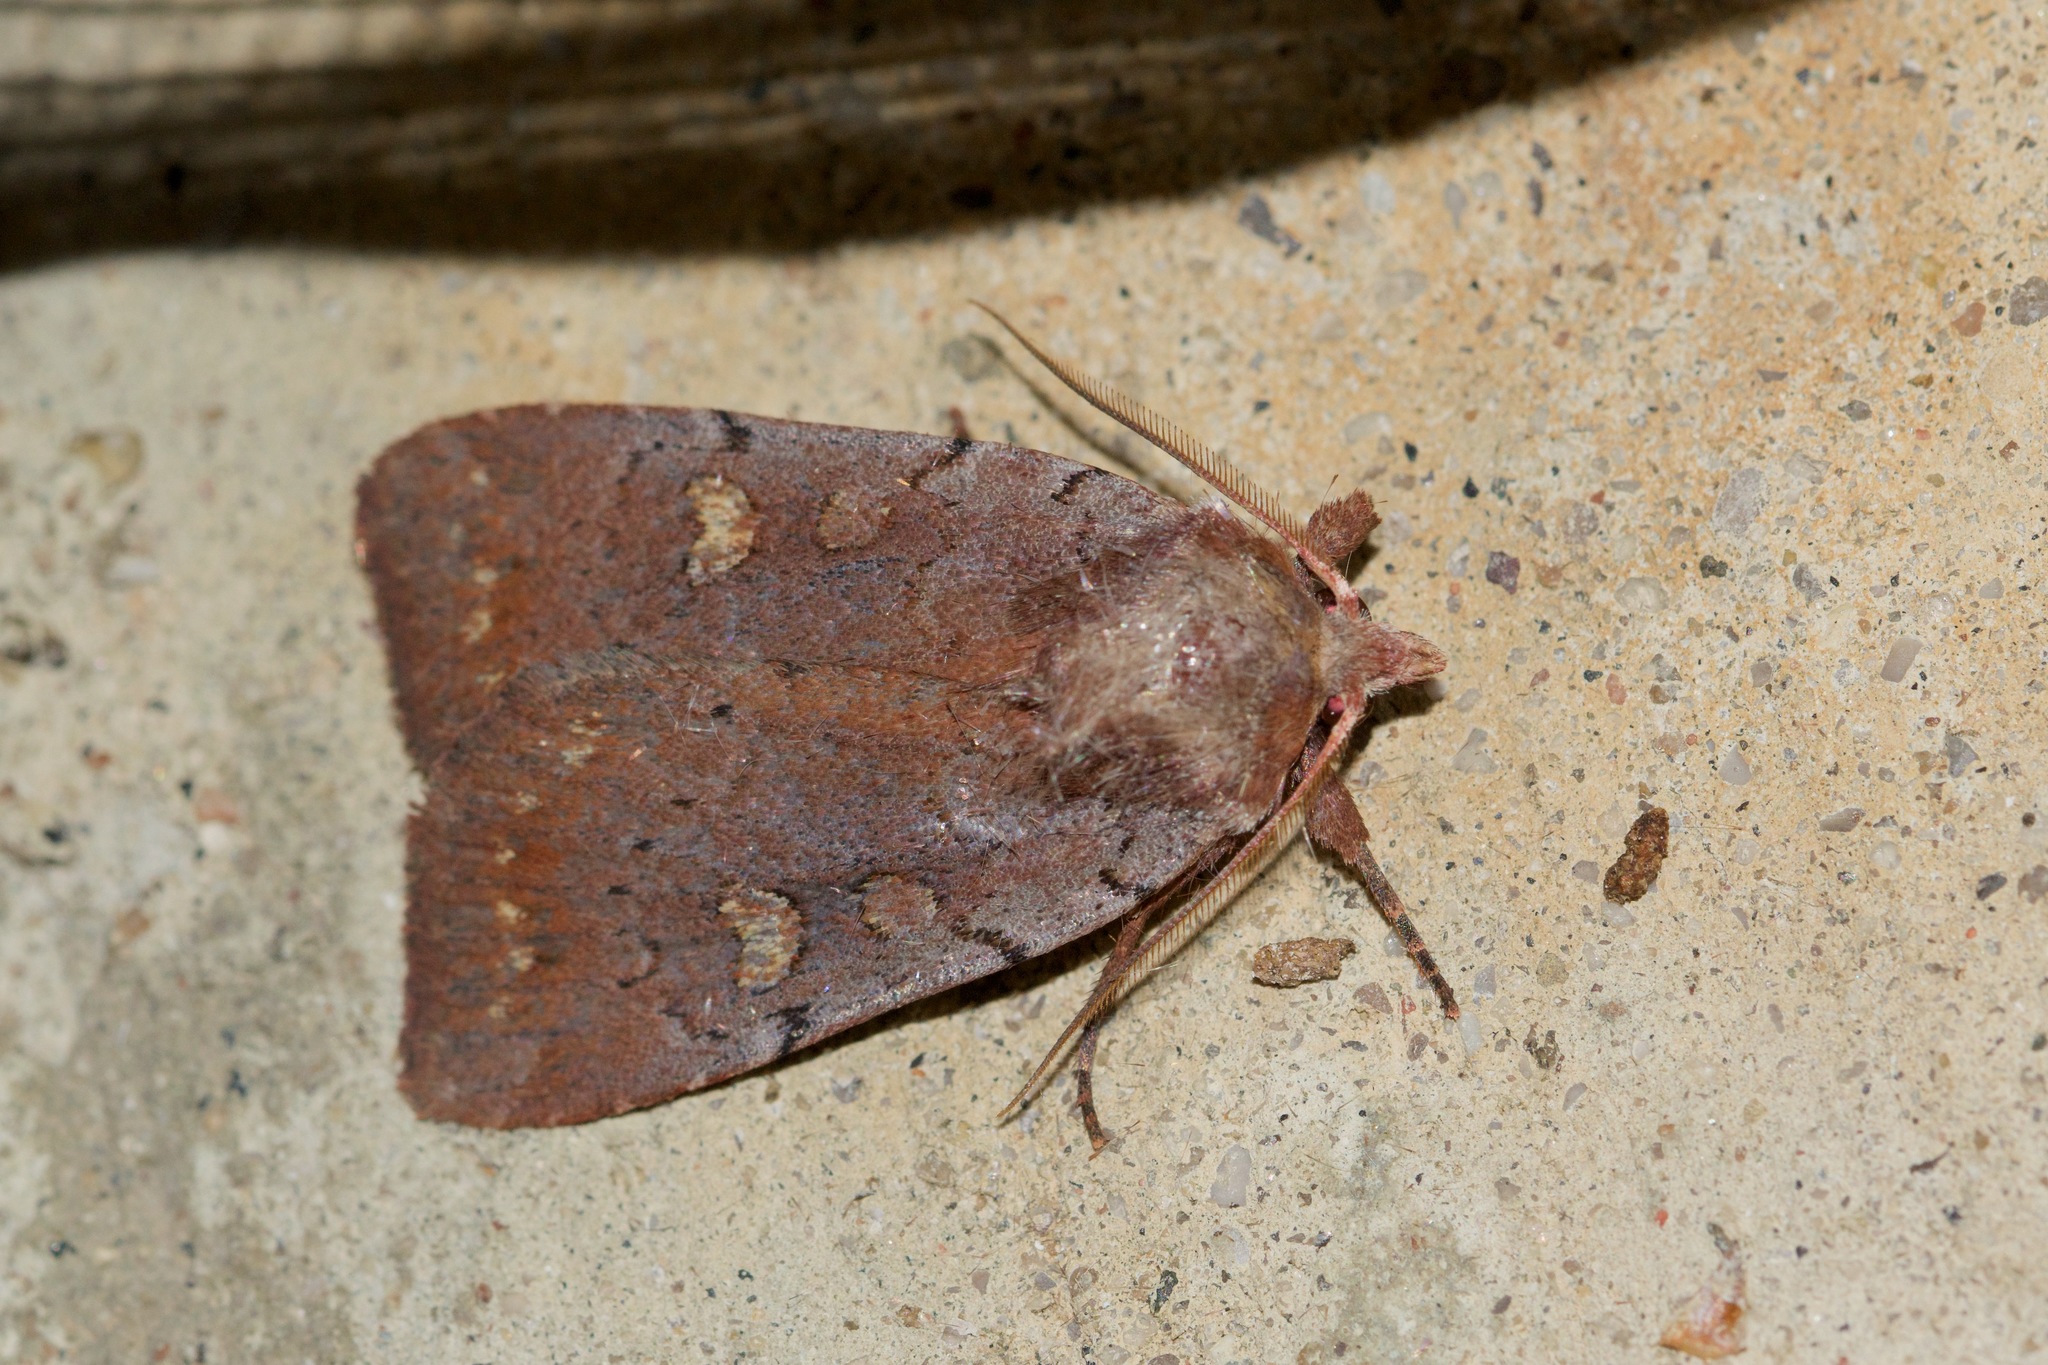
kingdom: Animalia
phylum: Arthropoda
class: Insecta
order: Lepidoptera
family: Noctuidae
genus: Xestia
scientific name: Xestia dilucida
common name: Dull reddish dart
